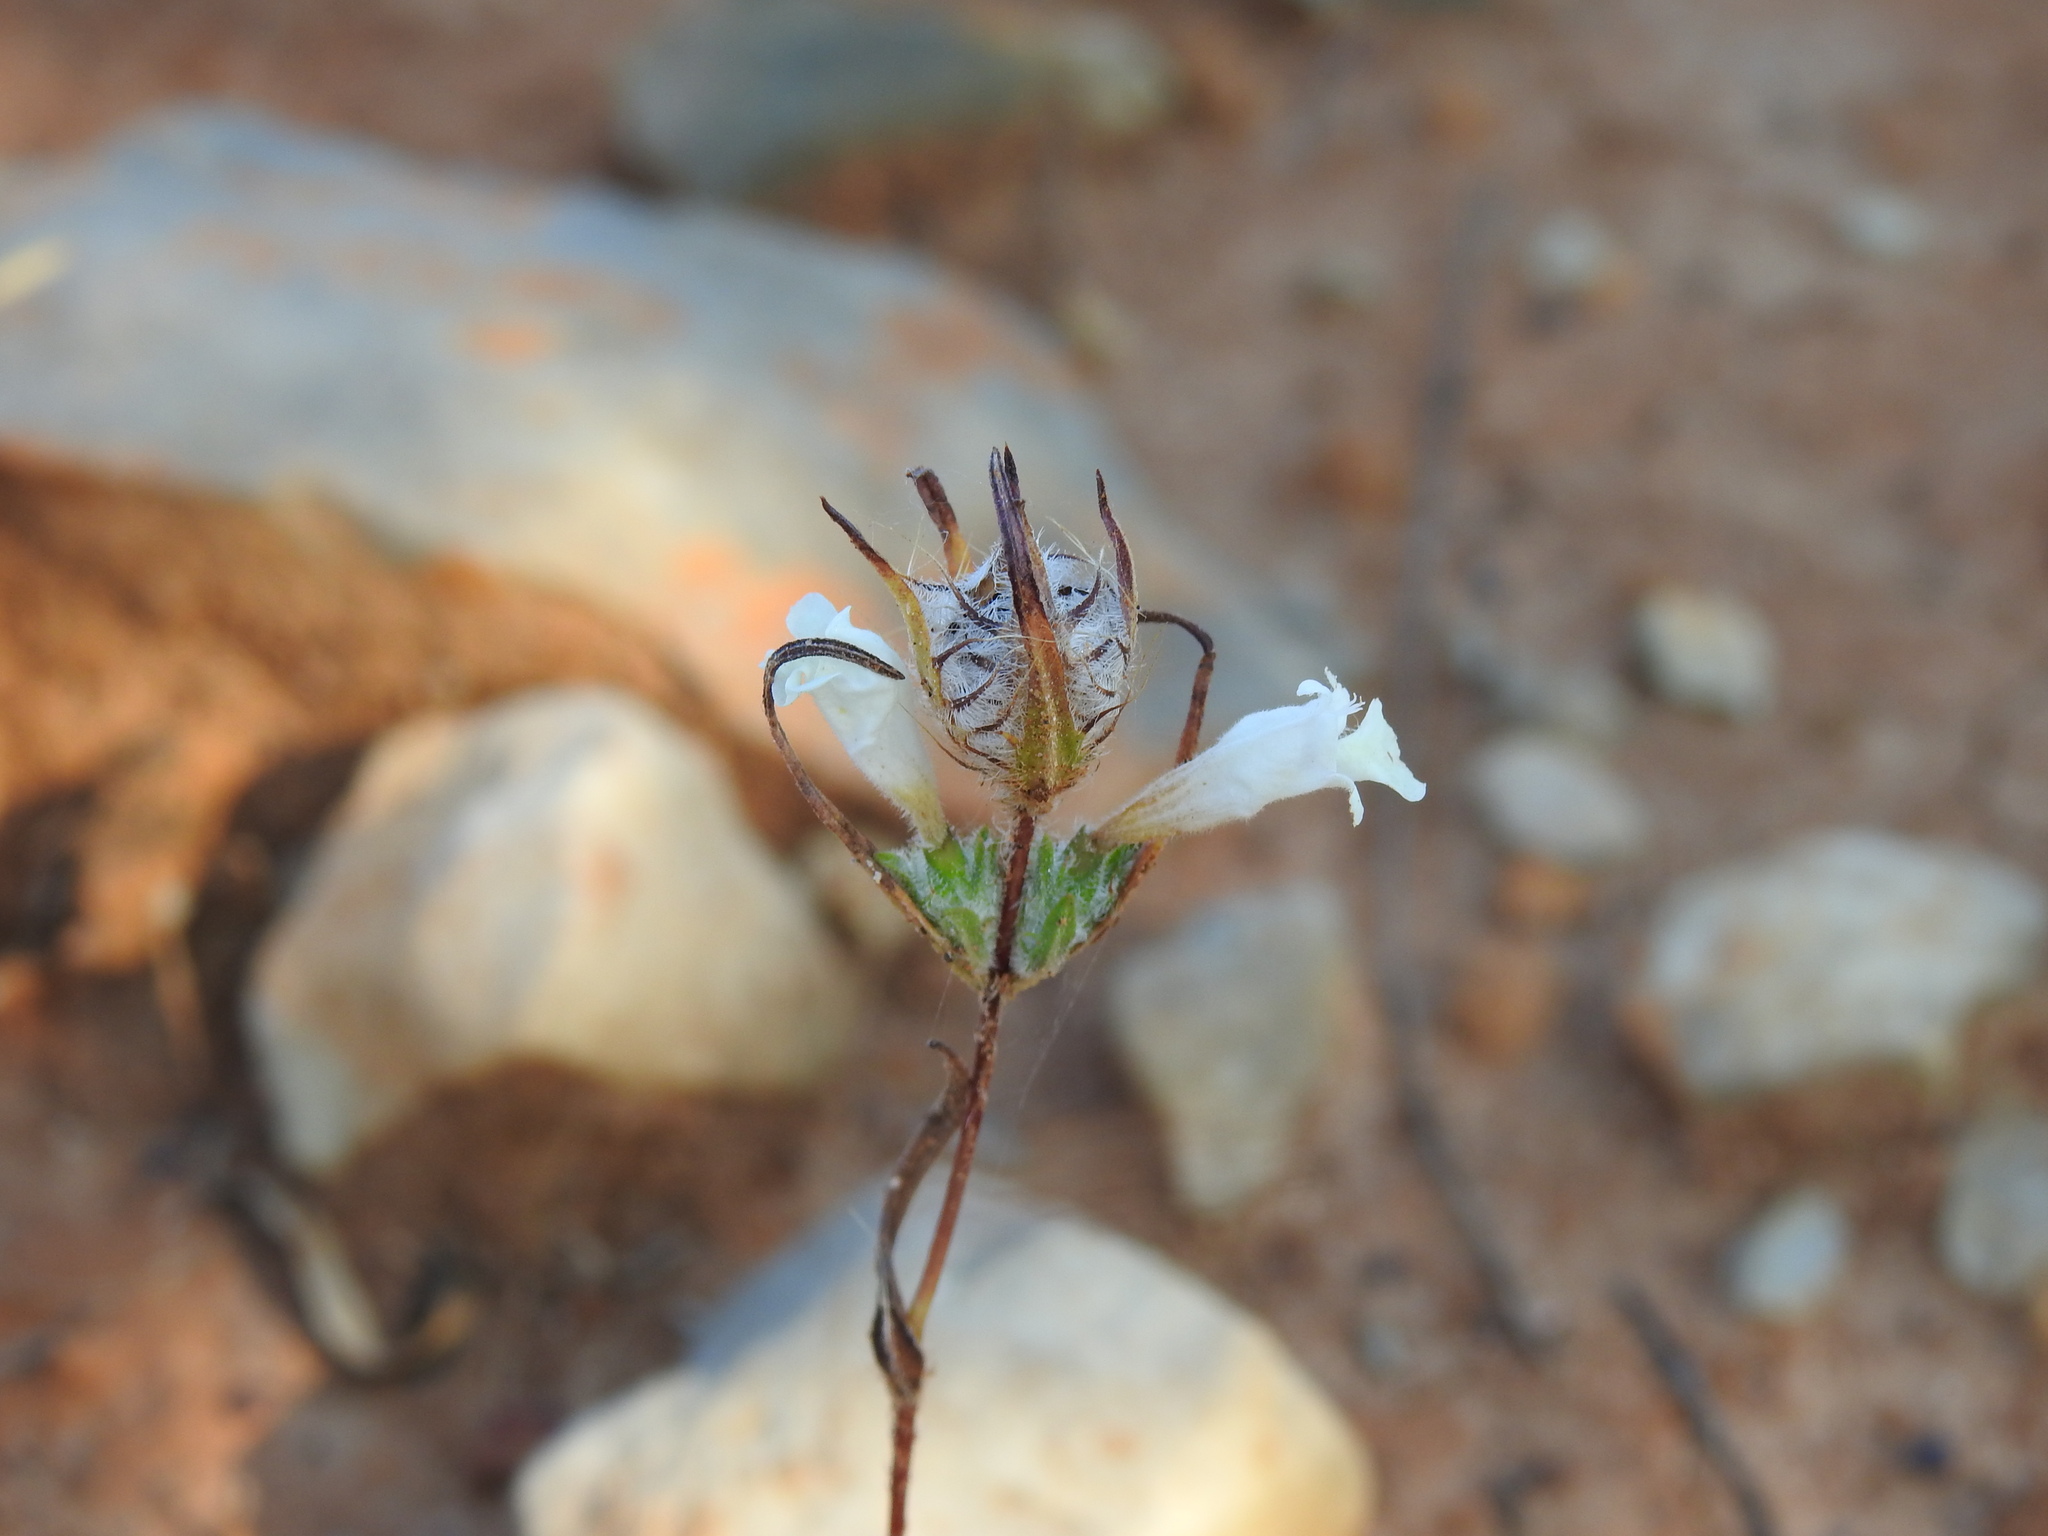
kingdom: Plantae
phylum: Tracheophyta
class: Magnoliopsida
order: Lamiales
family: Lamiaceae
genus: Cleonia
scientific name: Cleonia lusitanica
